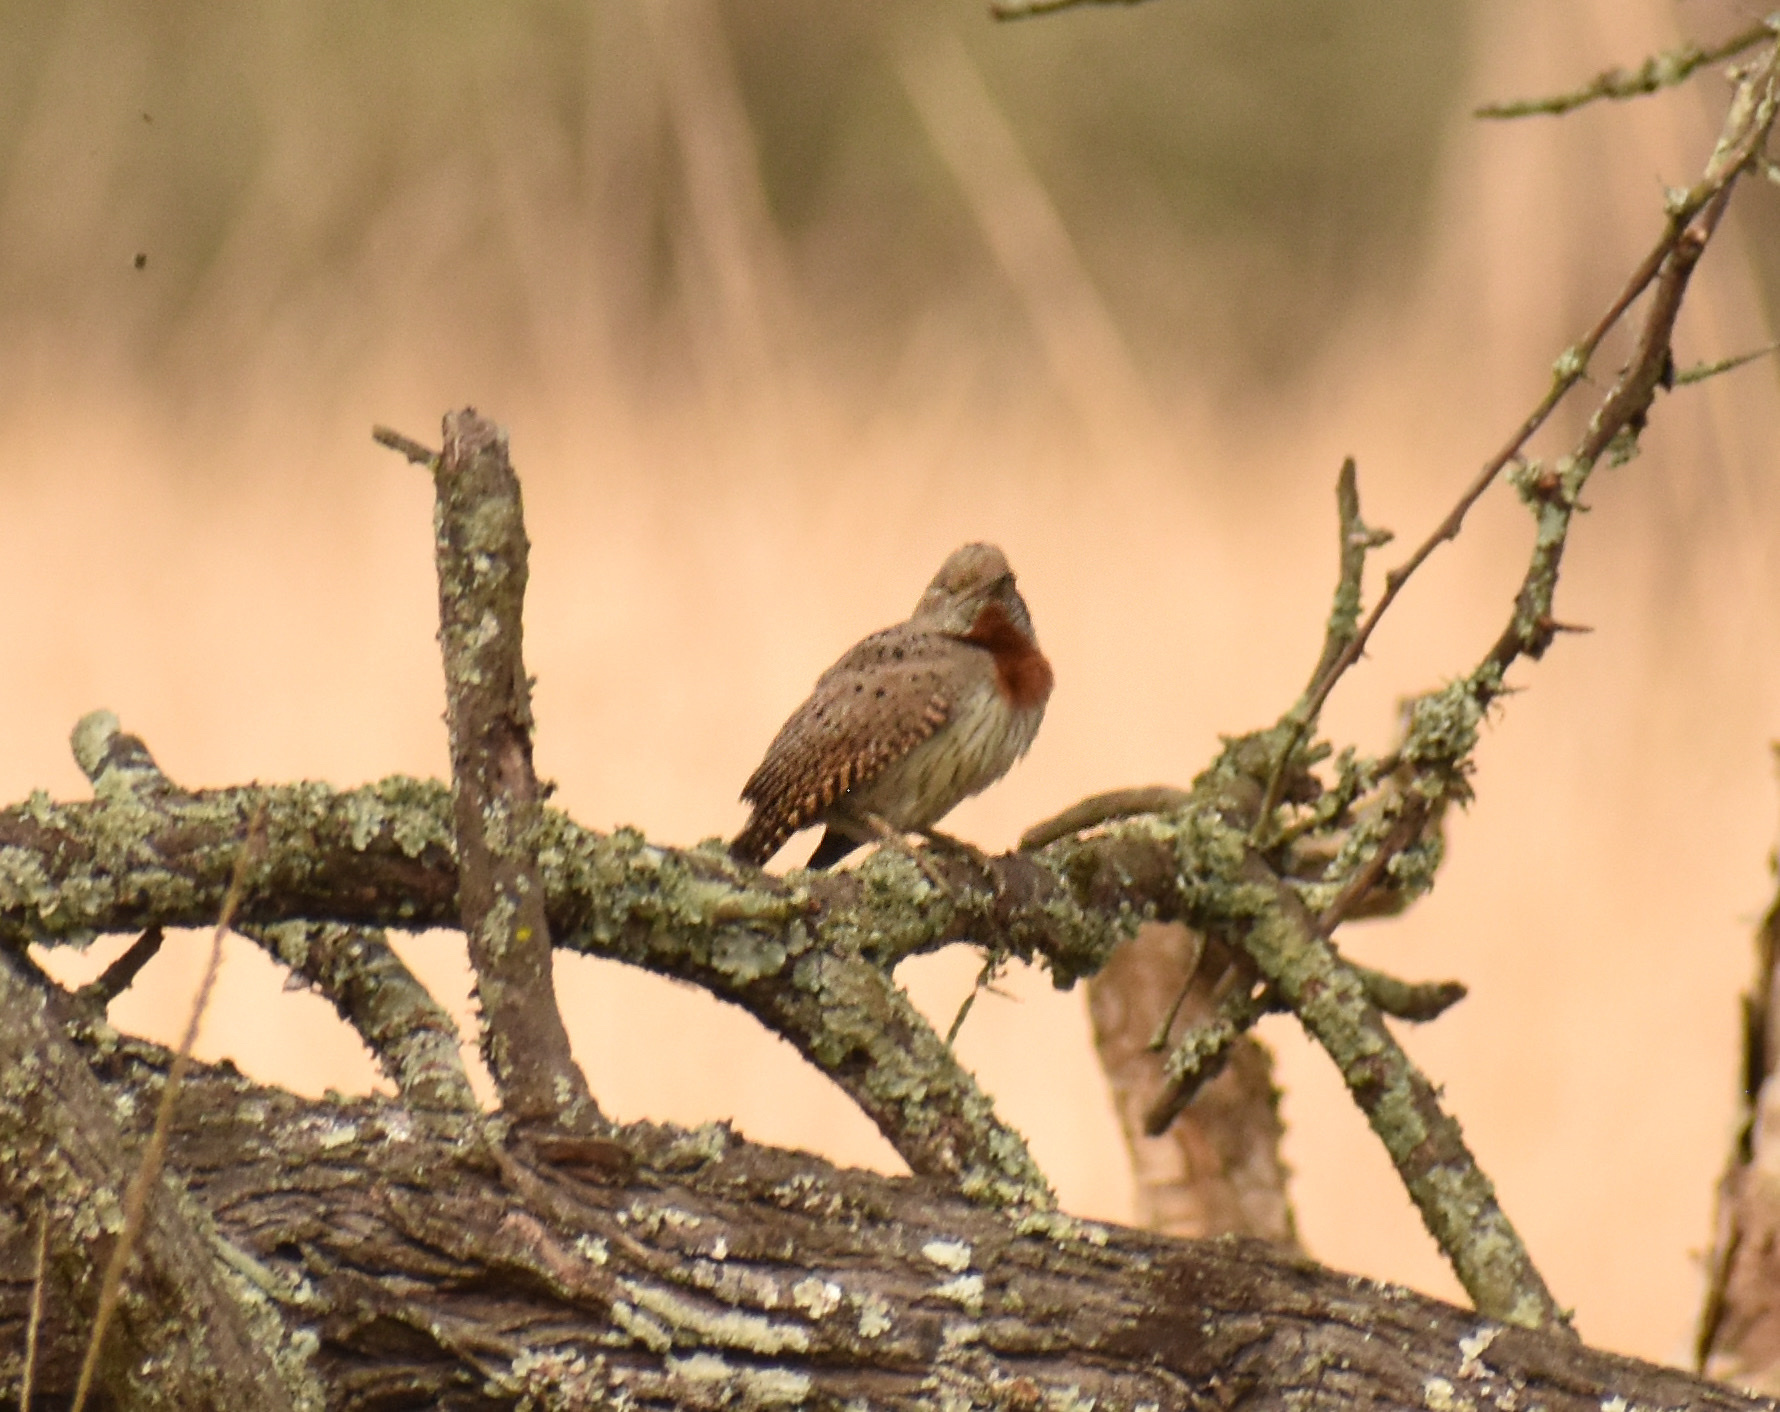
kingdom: Animalia
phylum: Chordata
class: Aves
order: Piciformes
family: Picidae
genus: Jynx
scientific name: Jynx ruficollis
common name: Red-throated wryneck
